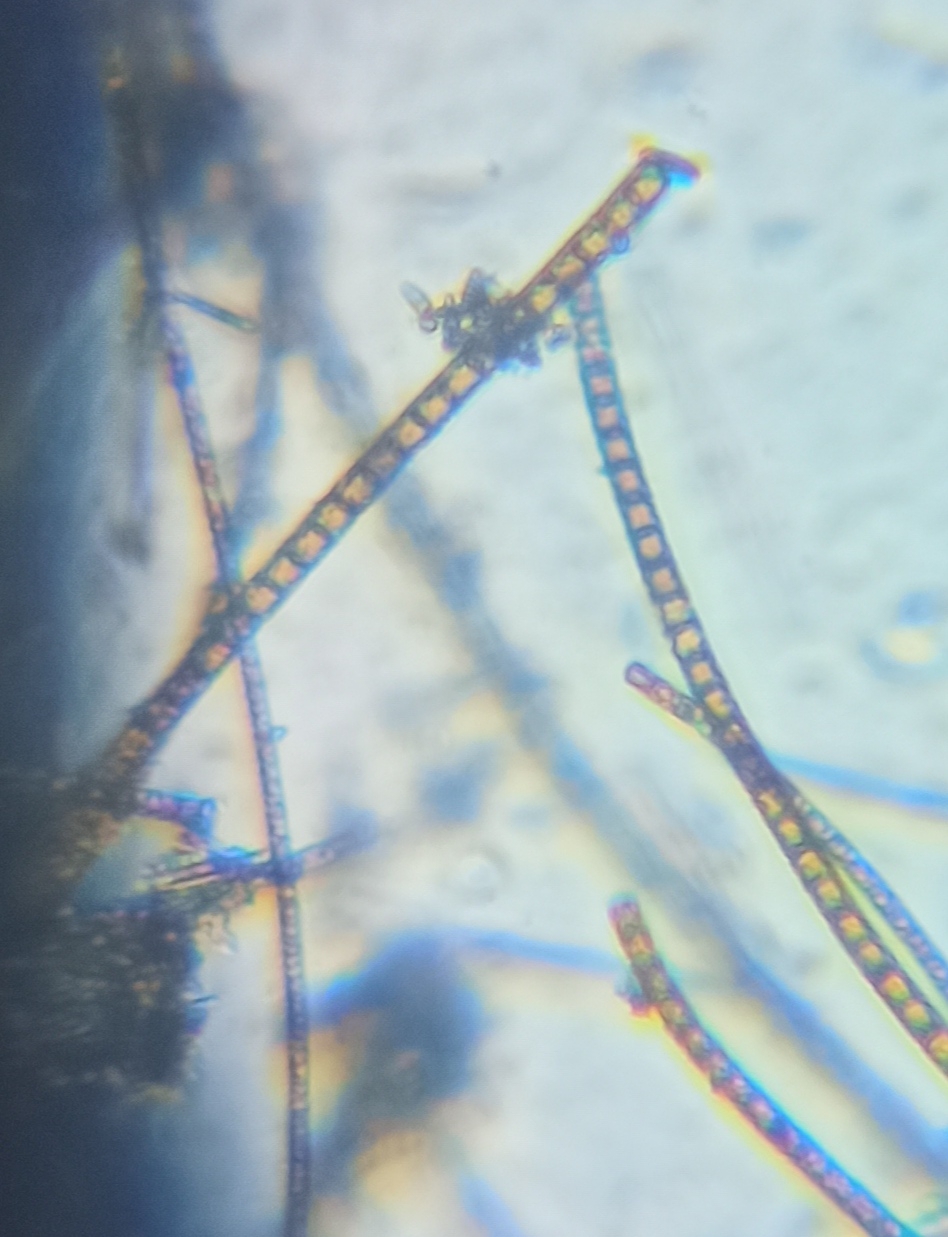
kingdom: Chromista
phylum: Ochrophyta
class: Bacillariophyceae
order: Melosirales
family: Melosiraceae
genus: Melosira
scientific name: Melosira varians
